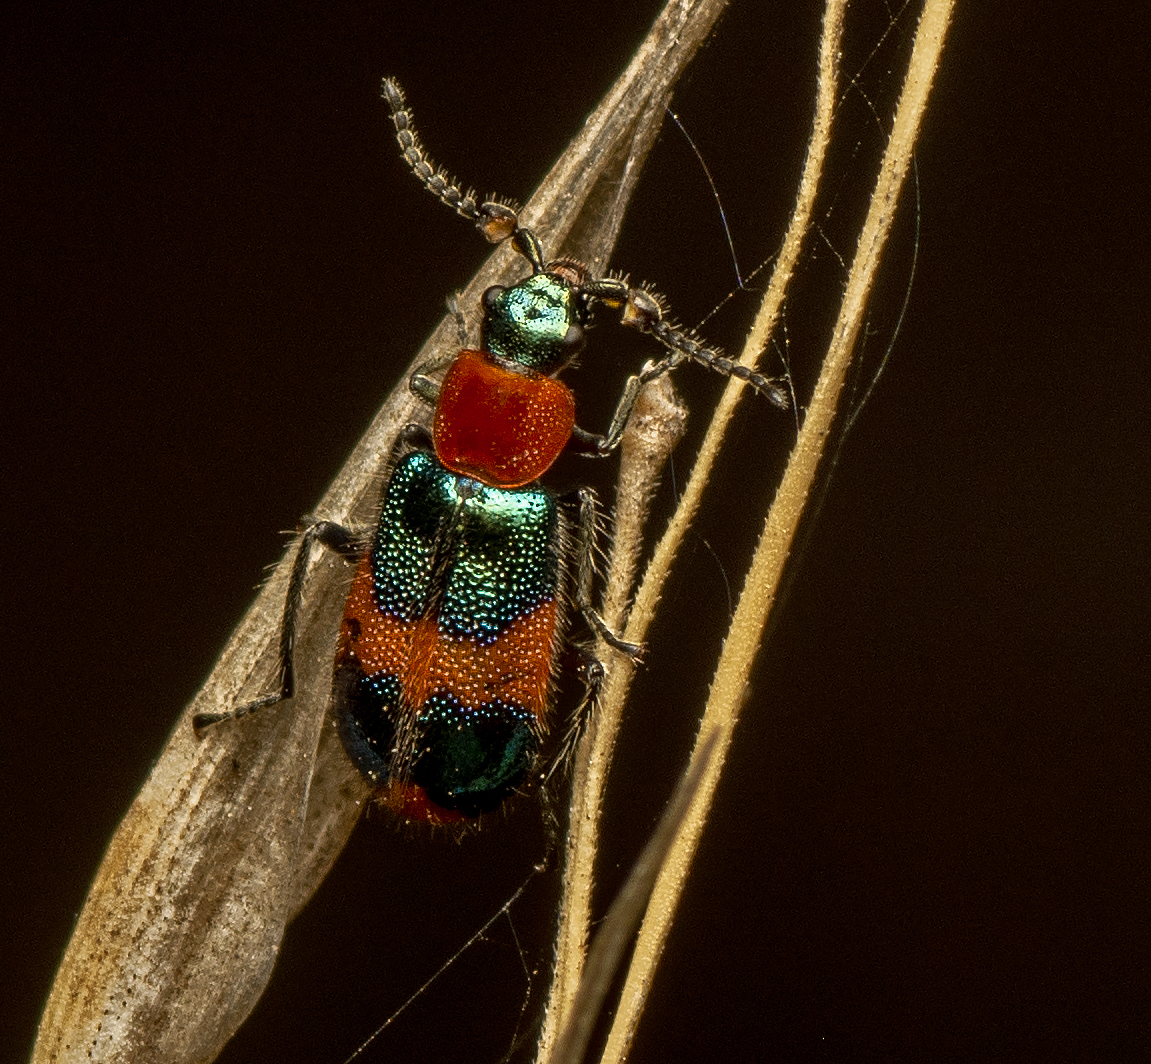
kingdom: Animalia
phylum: Arthropoda
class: Insecta
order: Coleoptera
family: Melyridae
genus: Dicranolaius
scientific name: Dicranolaius bellulus
